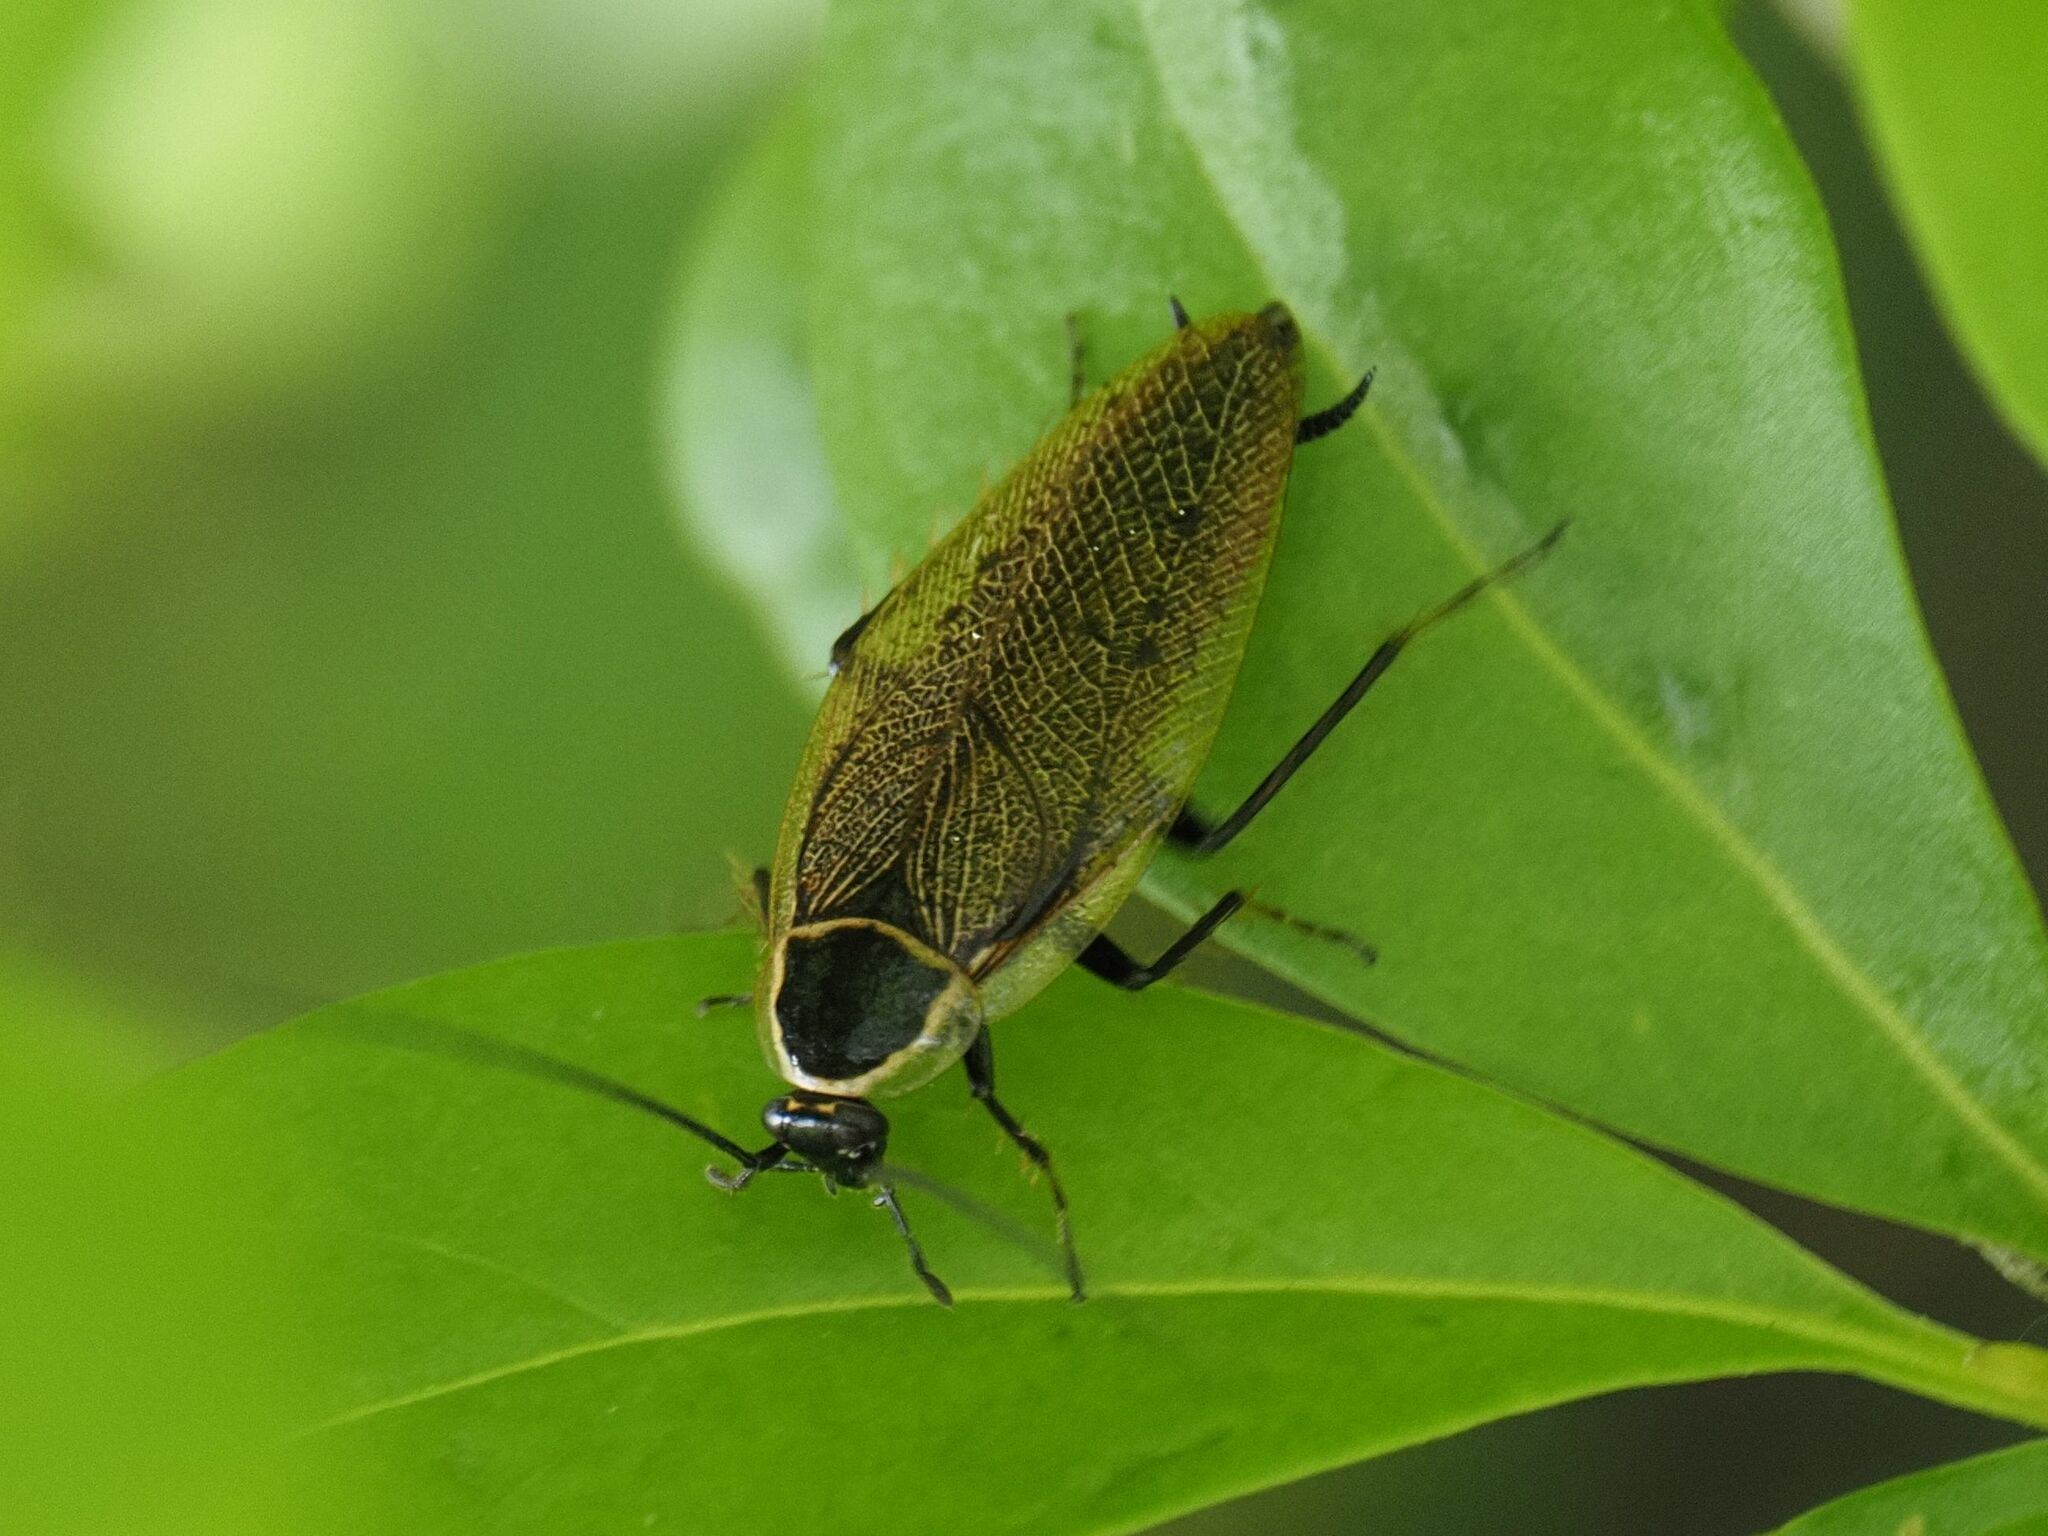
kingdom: Animalia
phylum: Arthropoda
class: Insecta
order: Blattodea
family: Ectobiidae
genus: Ectobius
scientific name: Ectobius sylvestris
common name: Forest cockroach
